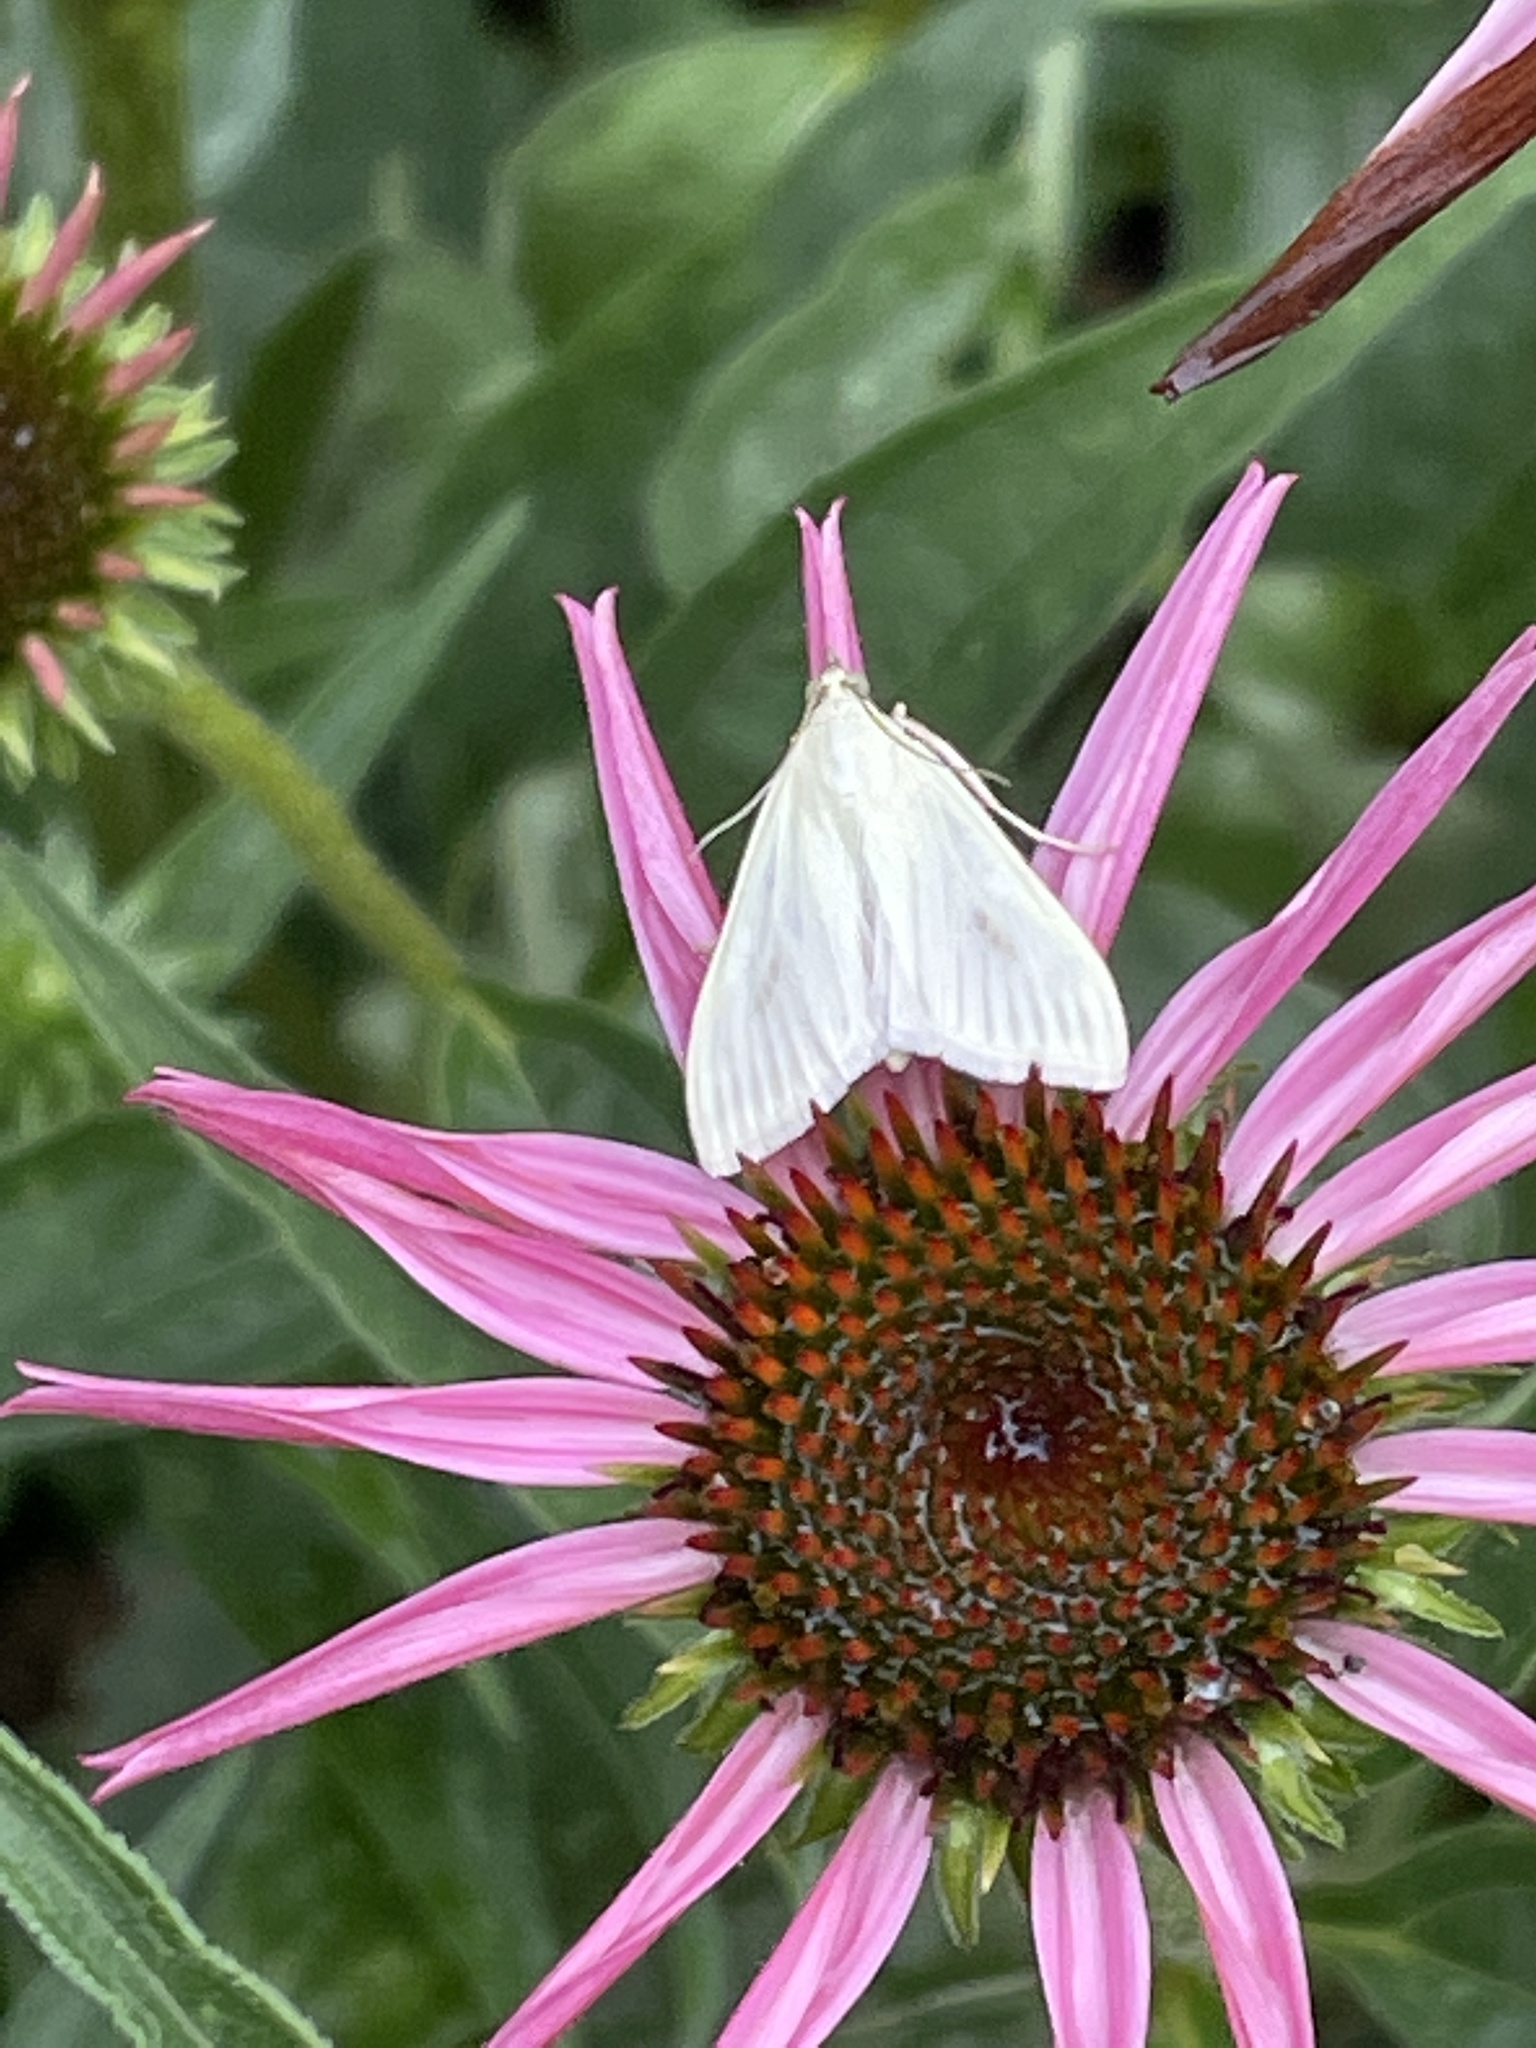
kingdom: Animalia
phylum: Arthropoda
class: Insecta
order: Lepidoptera
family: Crambidae
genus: Sitochroa
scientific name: Sitochroa palealis
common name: Greenish-yellow sitochroa moth
